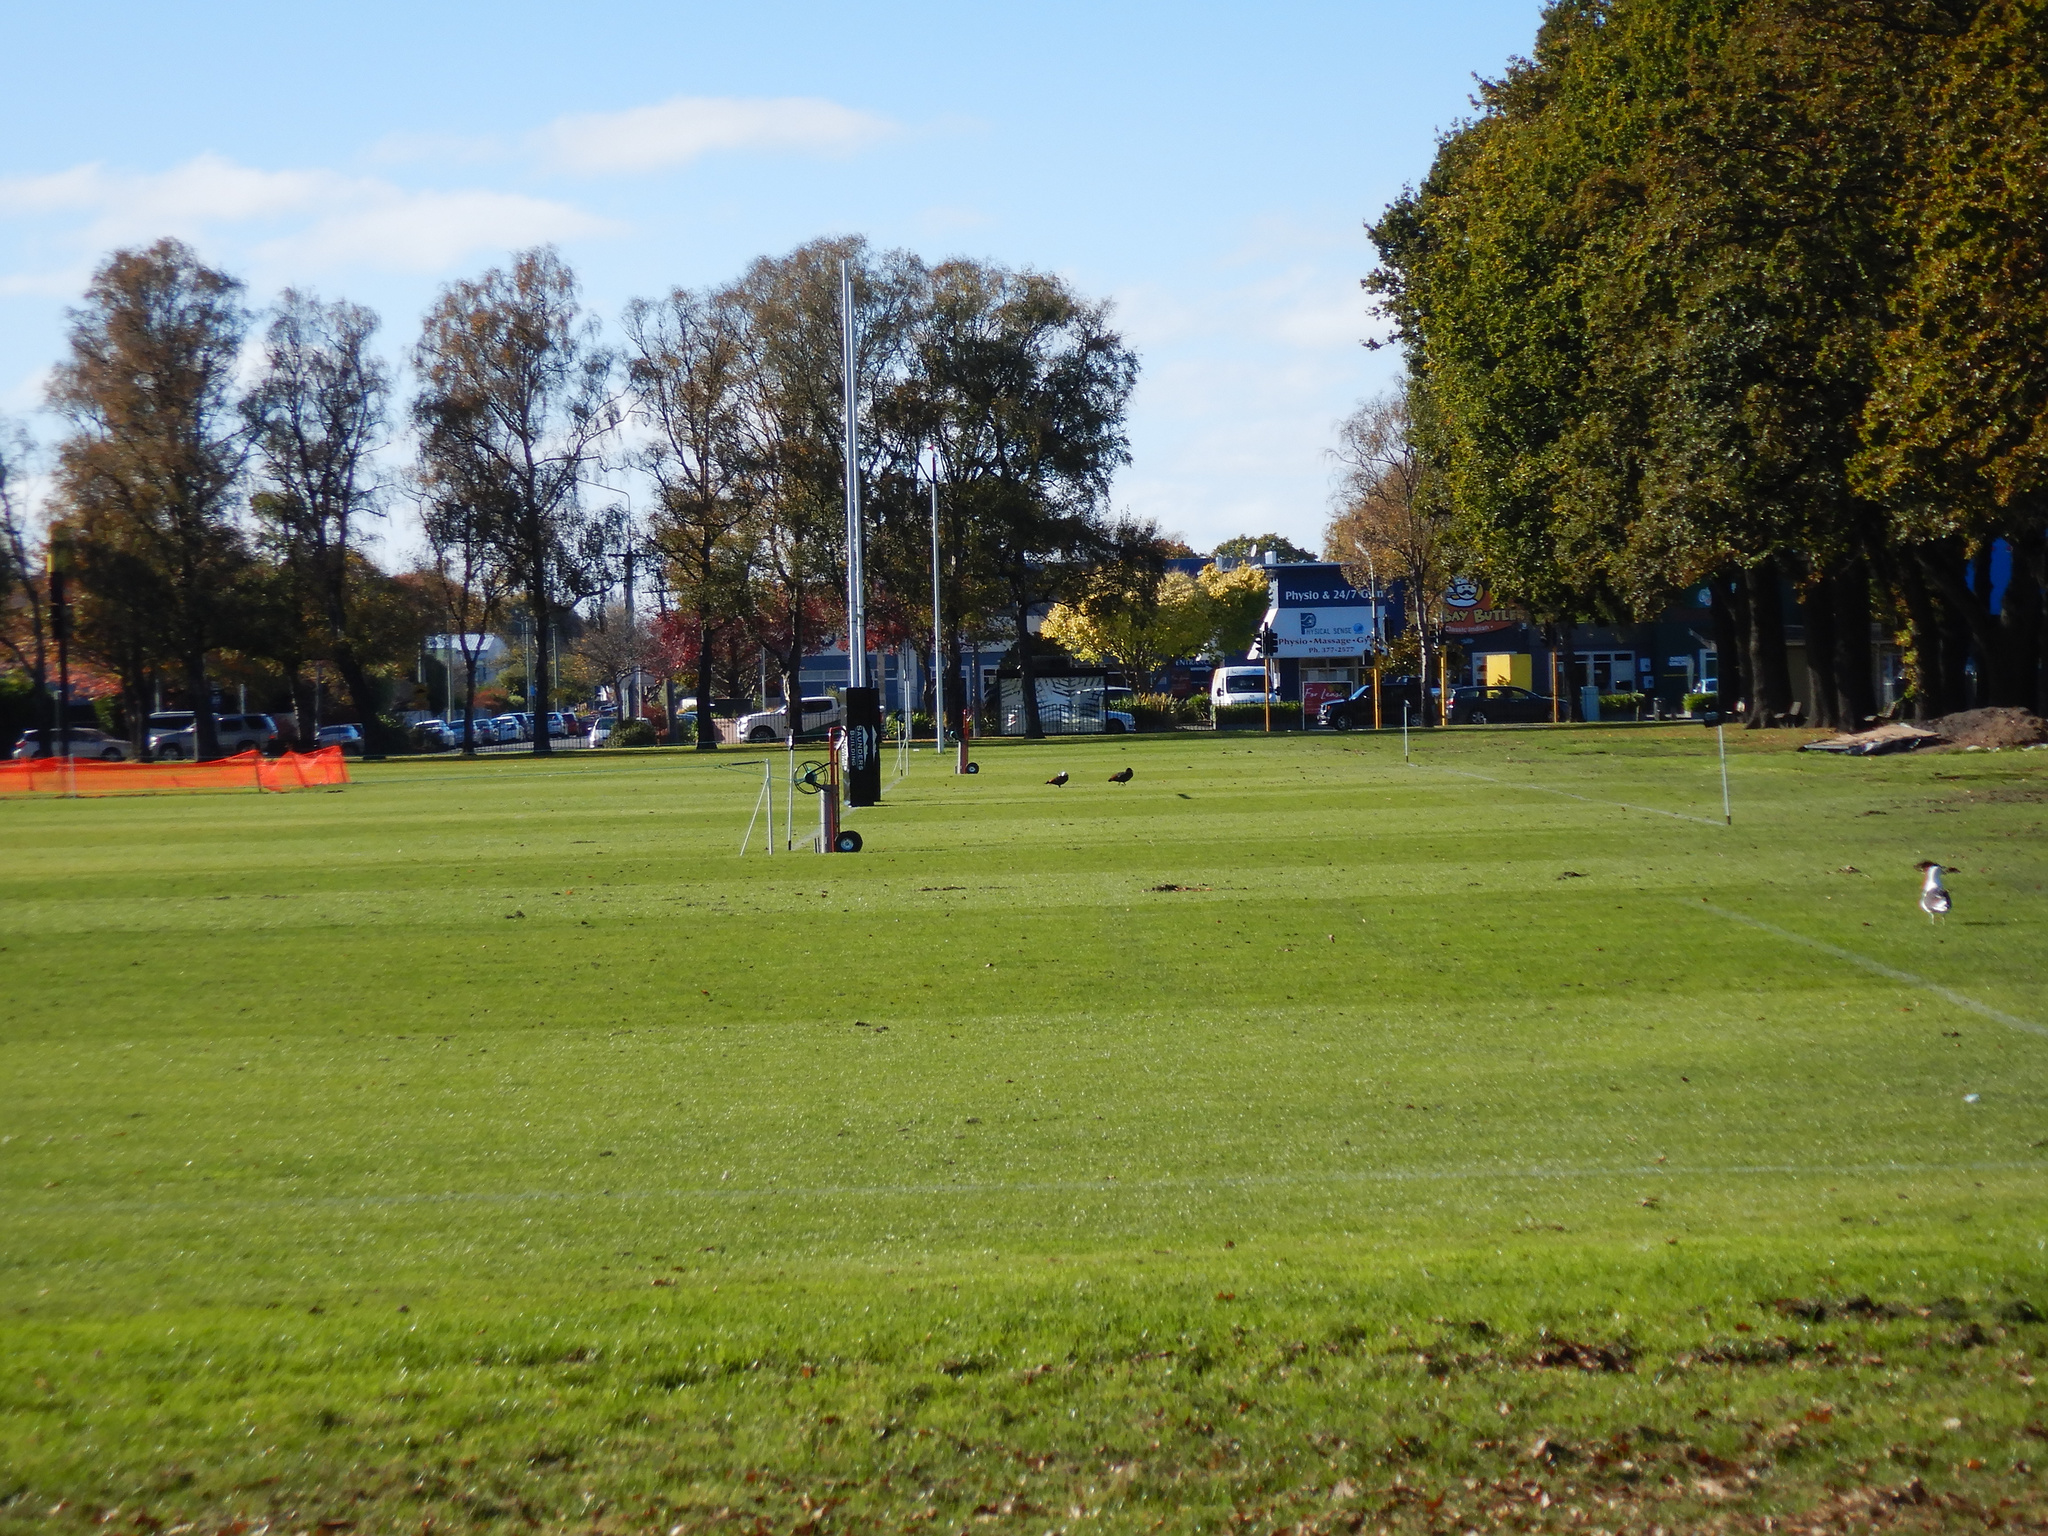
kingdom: Animalia
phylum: Chordata
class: Aves
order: Anseriformes
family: Anatidae
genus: Tadorna
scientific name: Tadorna variegata
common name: Paradise shelduck
